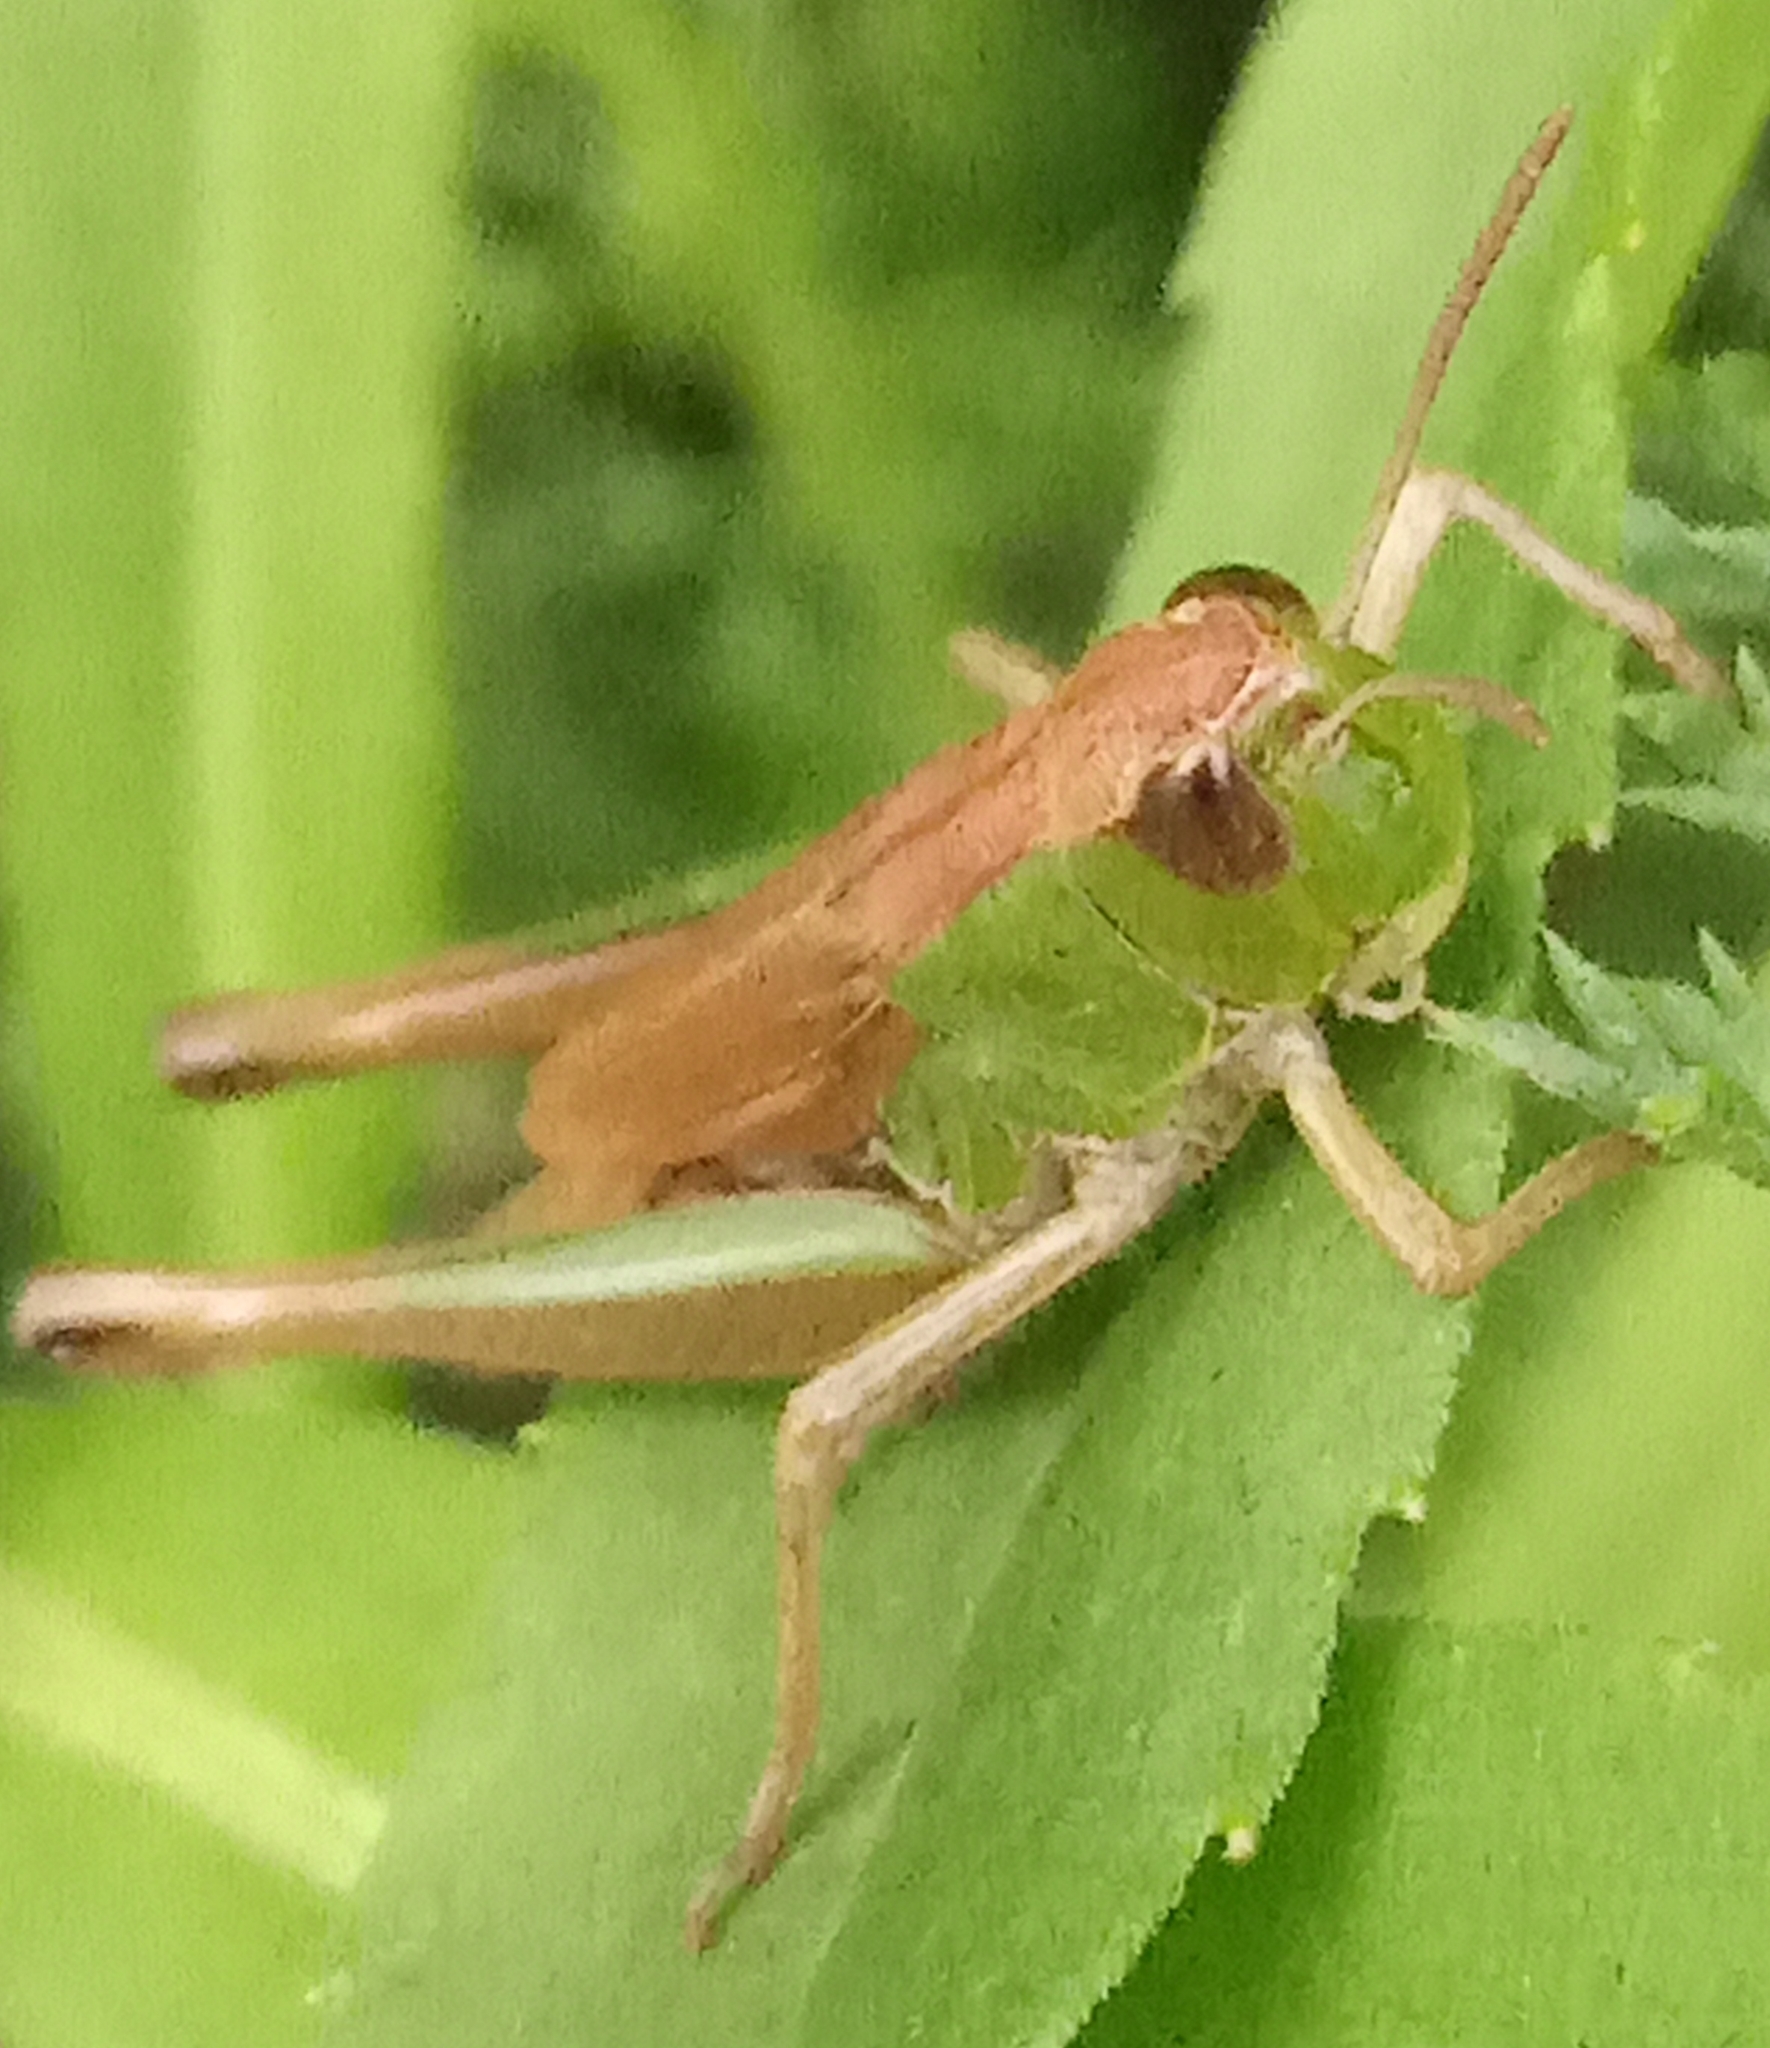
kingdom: Animalia
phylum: Arthropoda
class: Insecta
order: Orthoptera
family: Acrididae
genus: Pseudochorthippus
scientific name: Pseudochorthippus parallelus
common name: Meadow grasshopper
